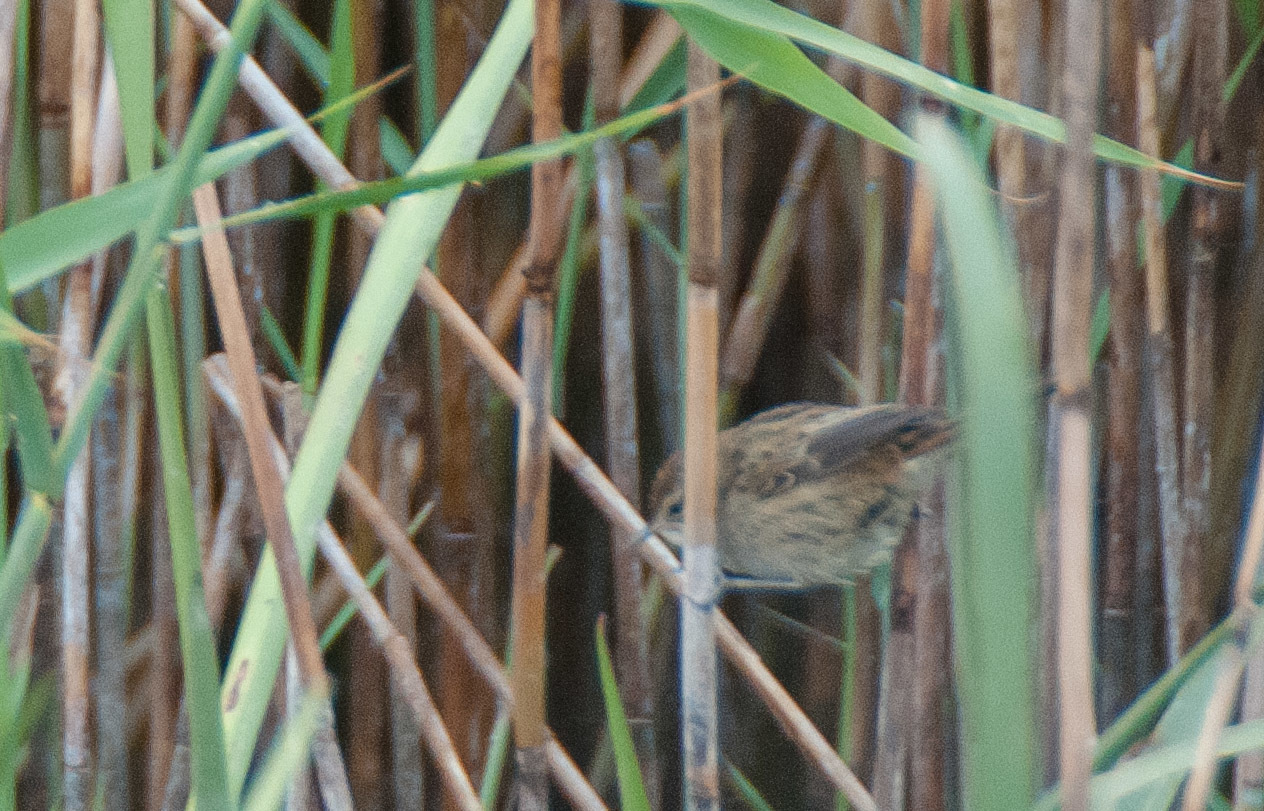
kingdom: Animalia
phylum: Chordata
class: Aves
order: Passeriformes
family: Locustellidae
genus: Megalurus
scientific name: Megalurus gramineus
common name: Little grassbird
